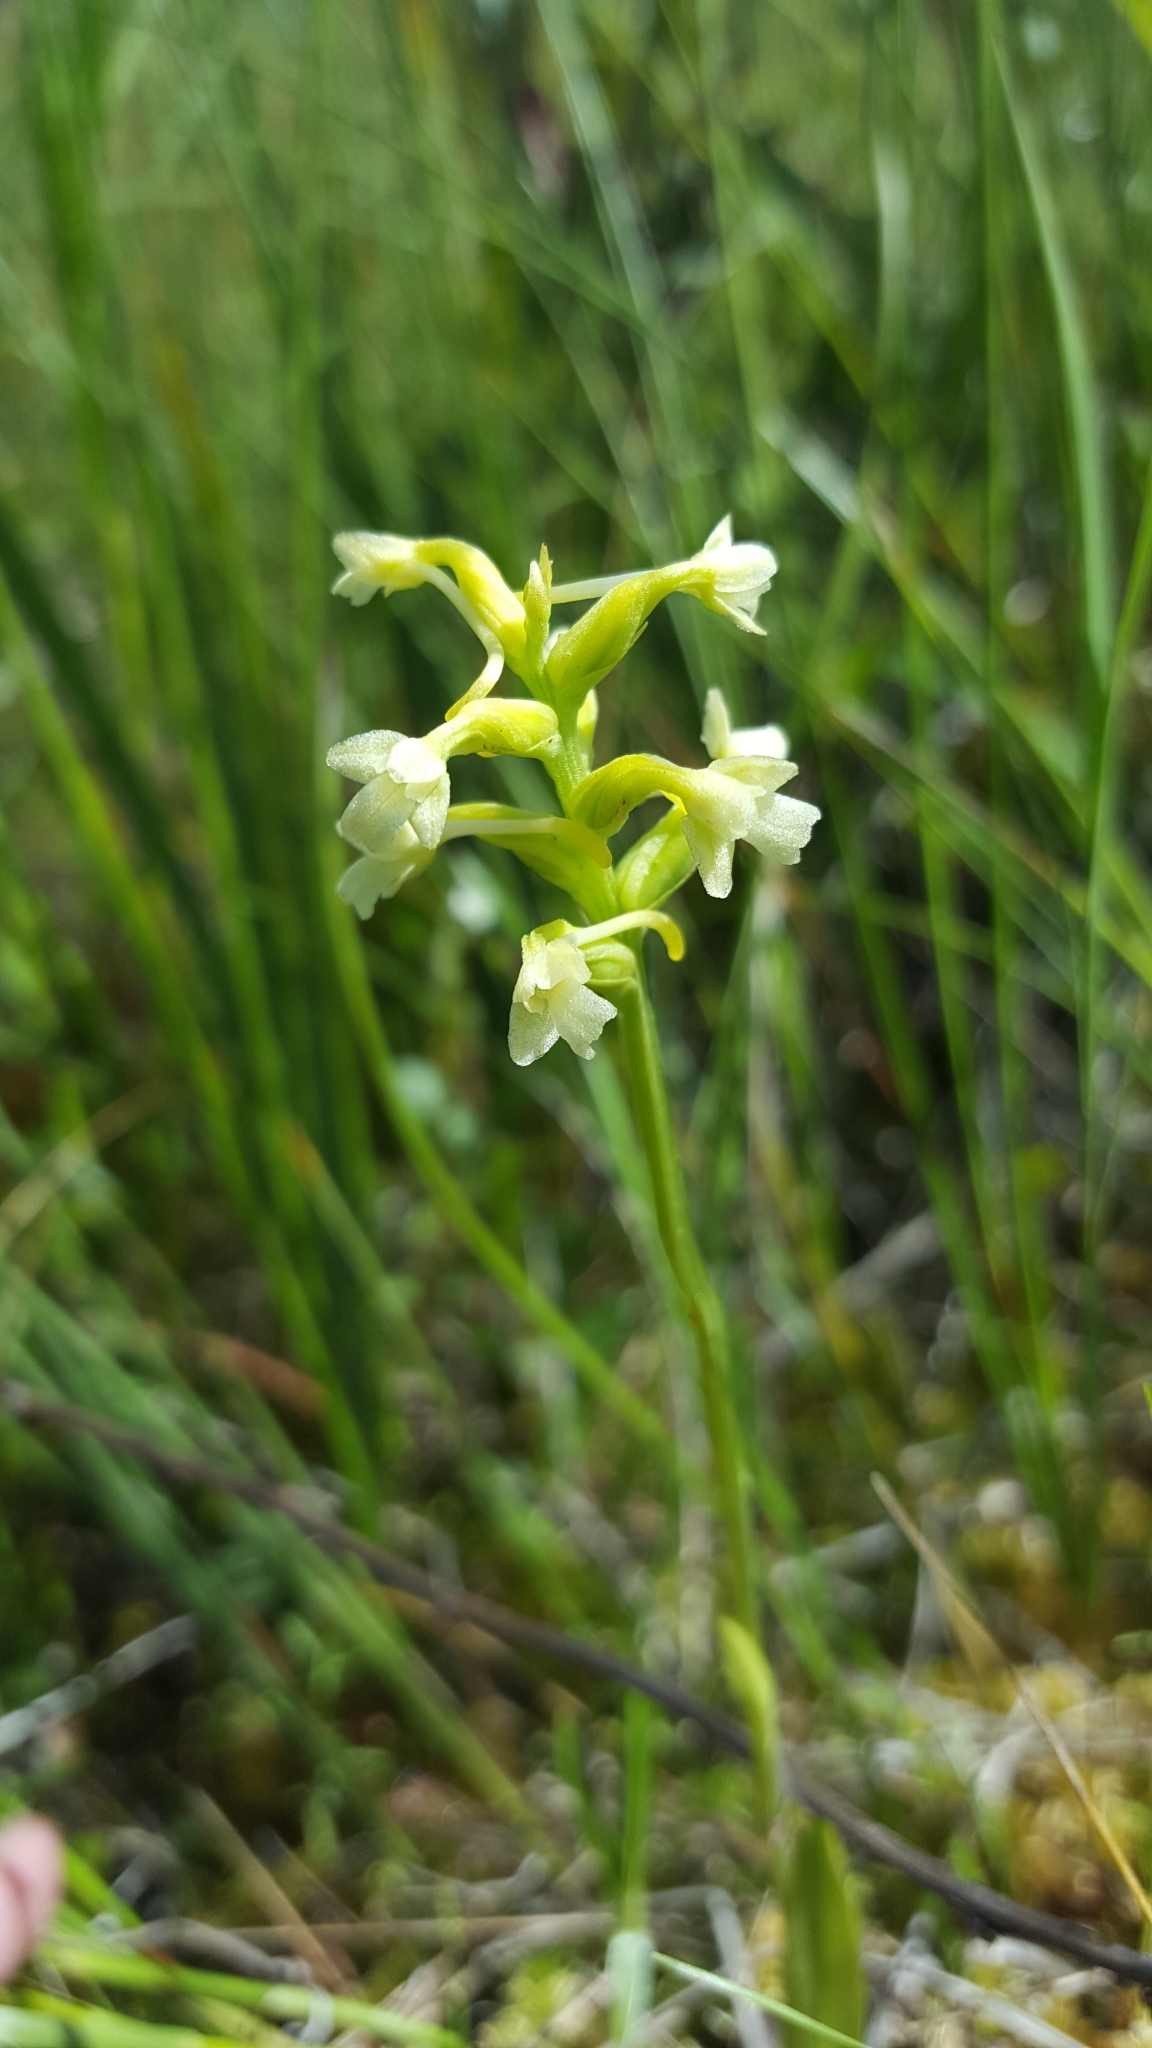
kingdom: Plantae
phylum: Tracheophyta
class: Liliopsida
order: Asparagales
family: Orchidaceae
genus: Platanthera
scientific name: Platanthera clavellata
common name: Club-spur orchid
